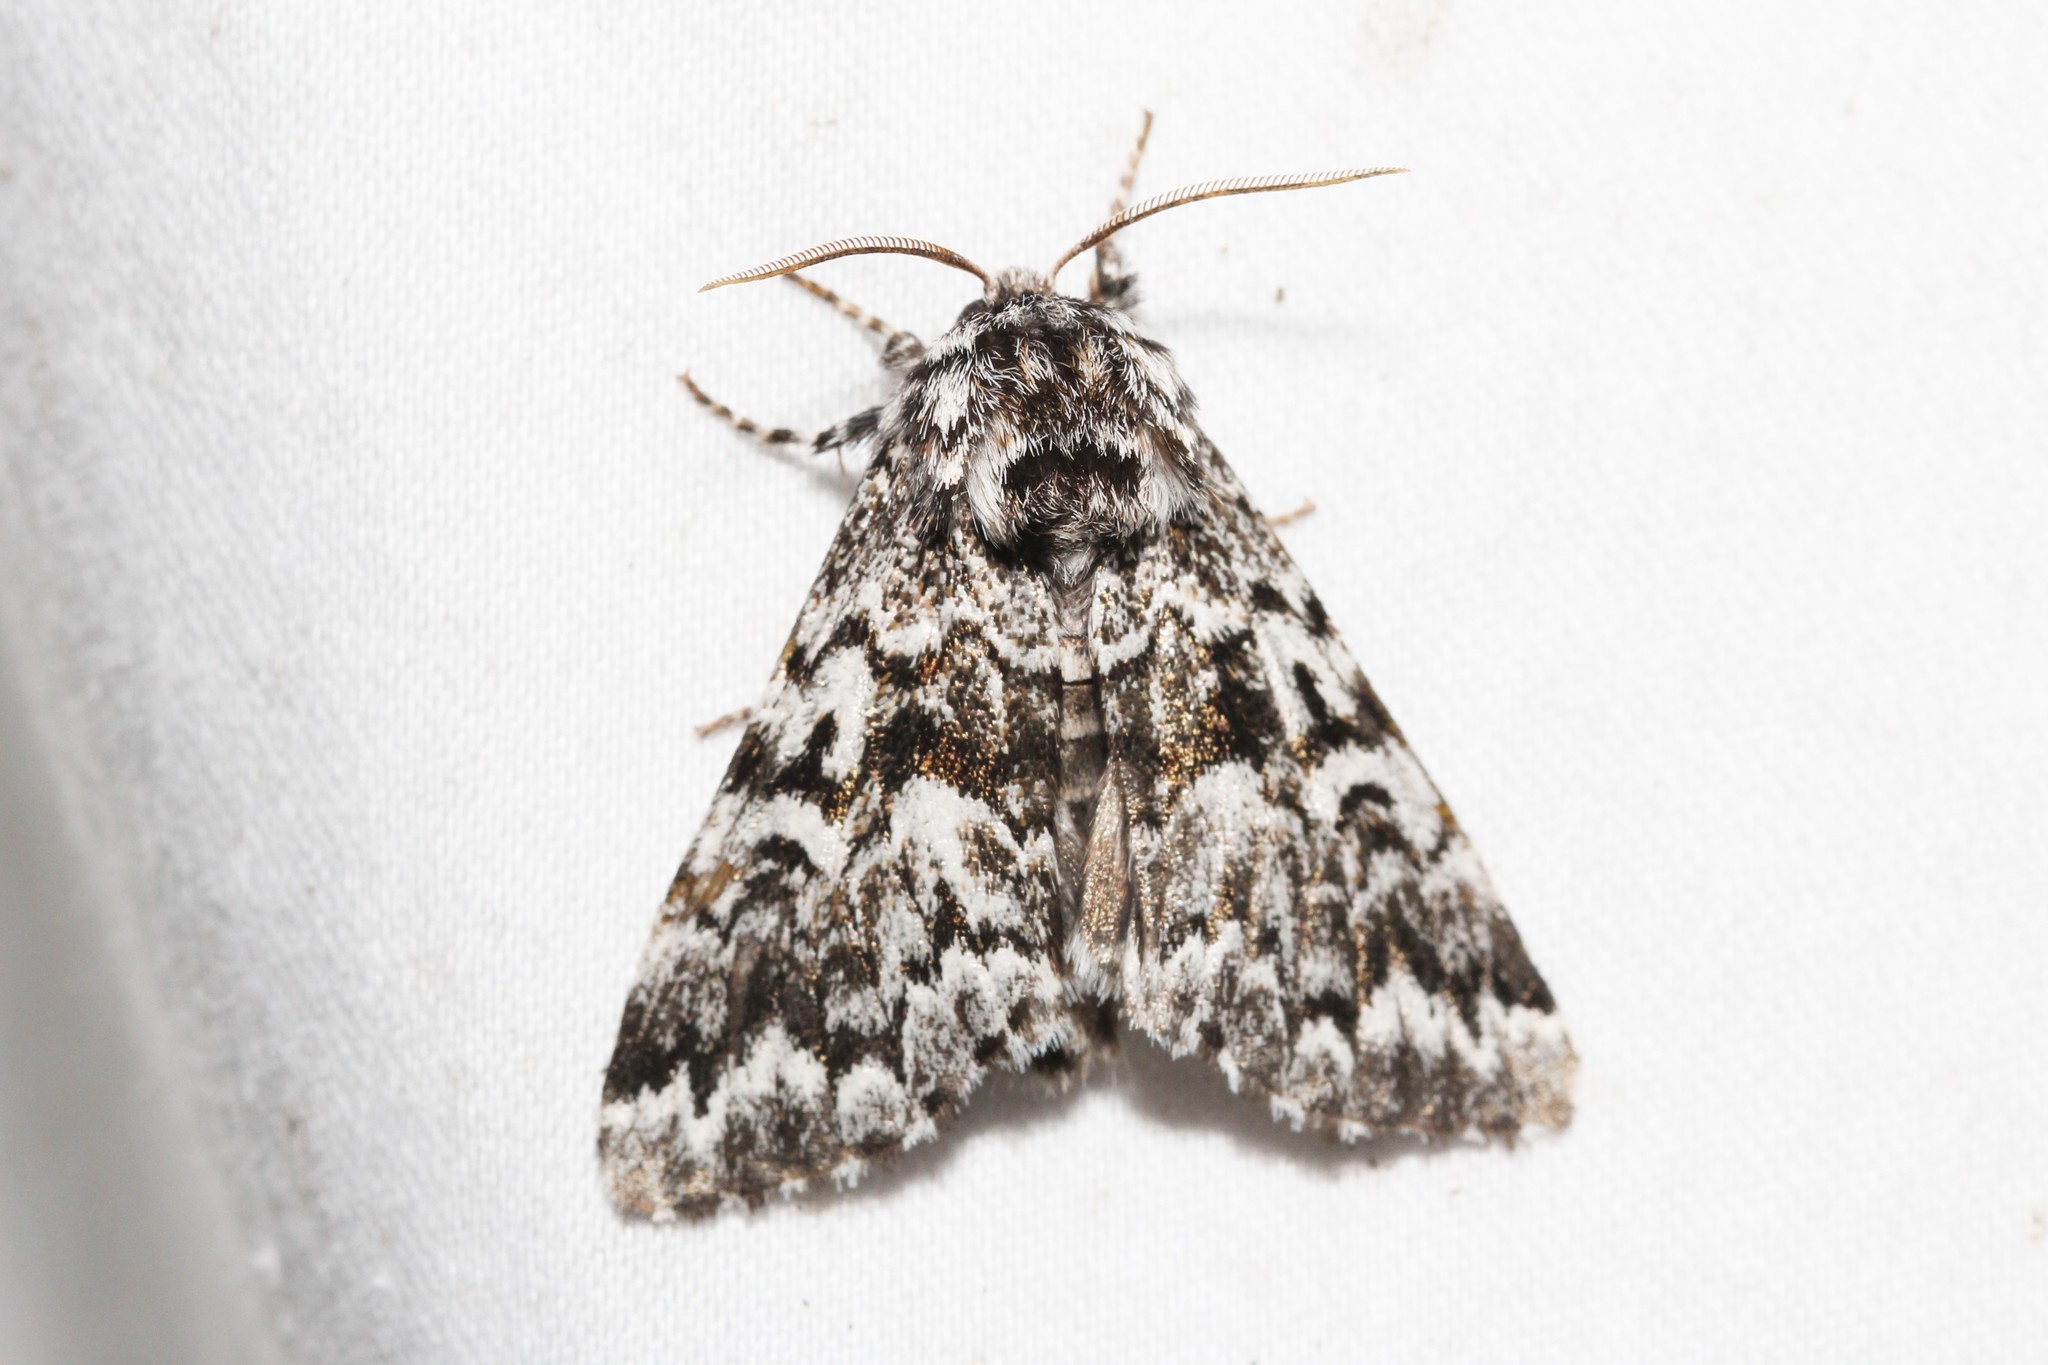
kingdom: Animalia
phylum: Arthropoda
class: Insecta
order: Lepidoptera
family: Noctuidae
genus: Panthea
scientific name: Panthea acronyctoides
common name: Black zigzag moth
